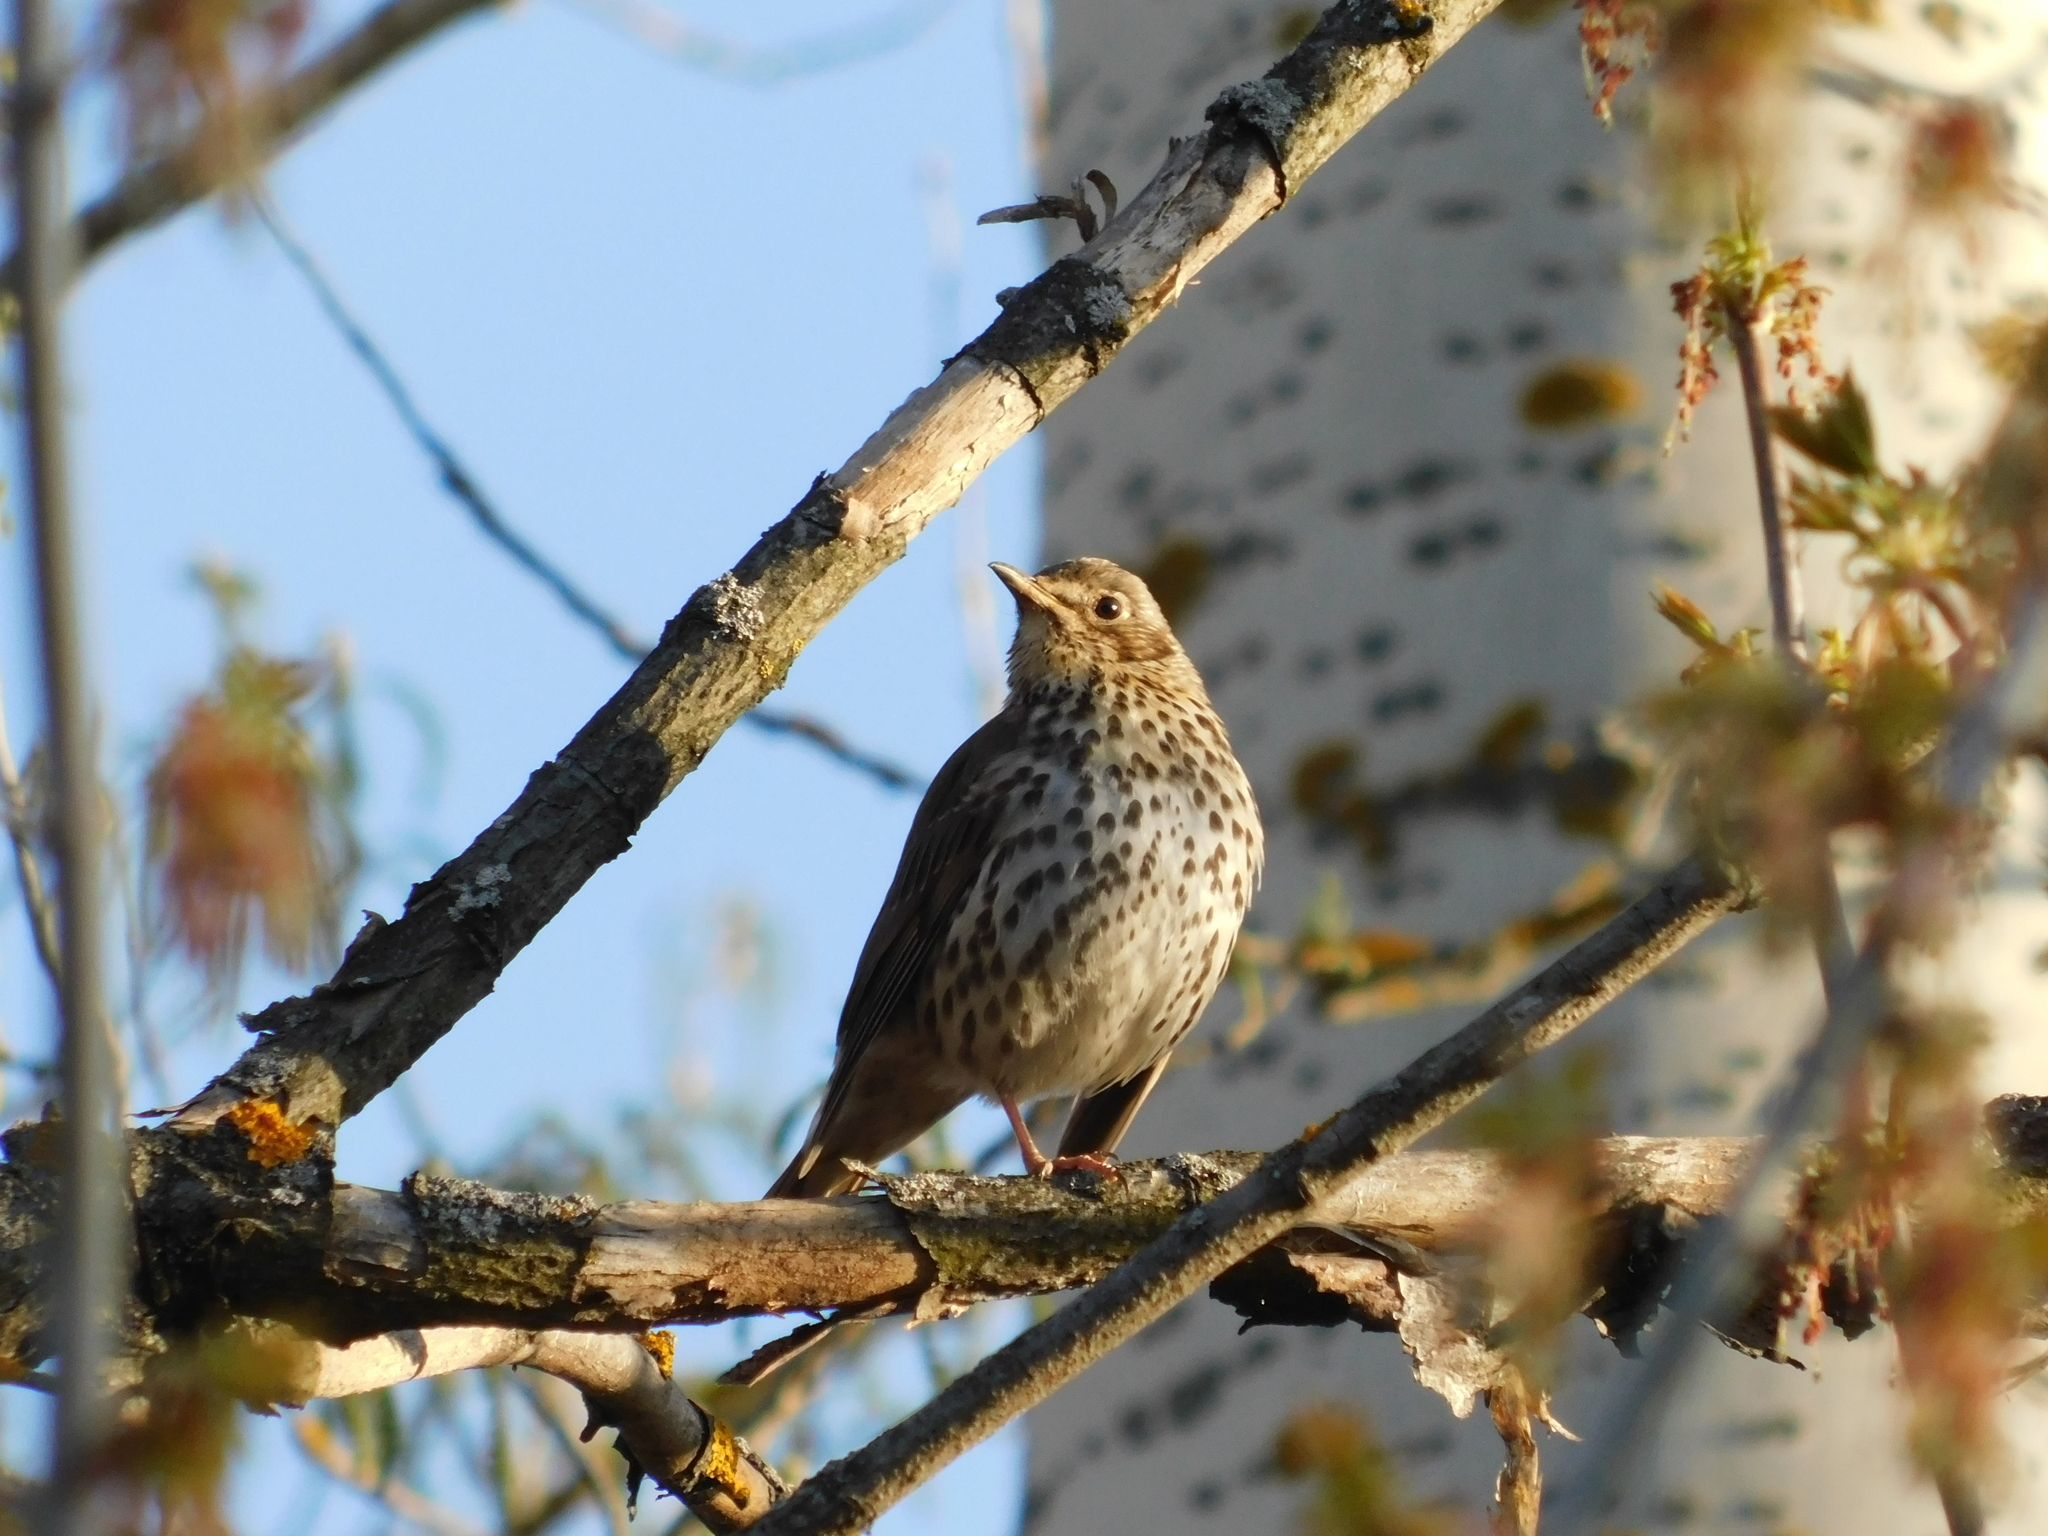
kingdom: Animalia
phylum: Chordata
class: Aves
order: Passeriformes
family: Turdidae
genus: Turdus
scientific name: Turdus philomelos
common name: Song thrush
